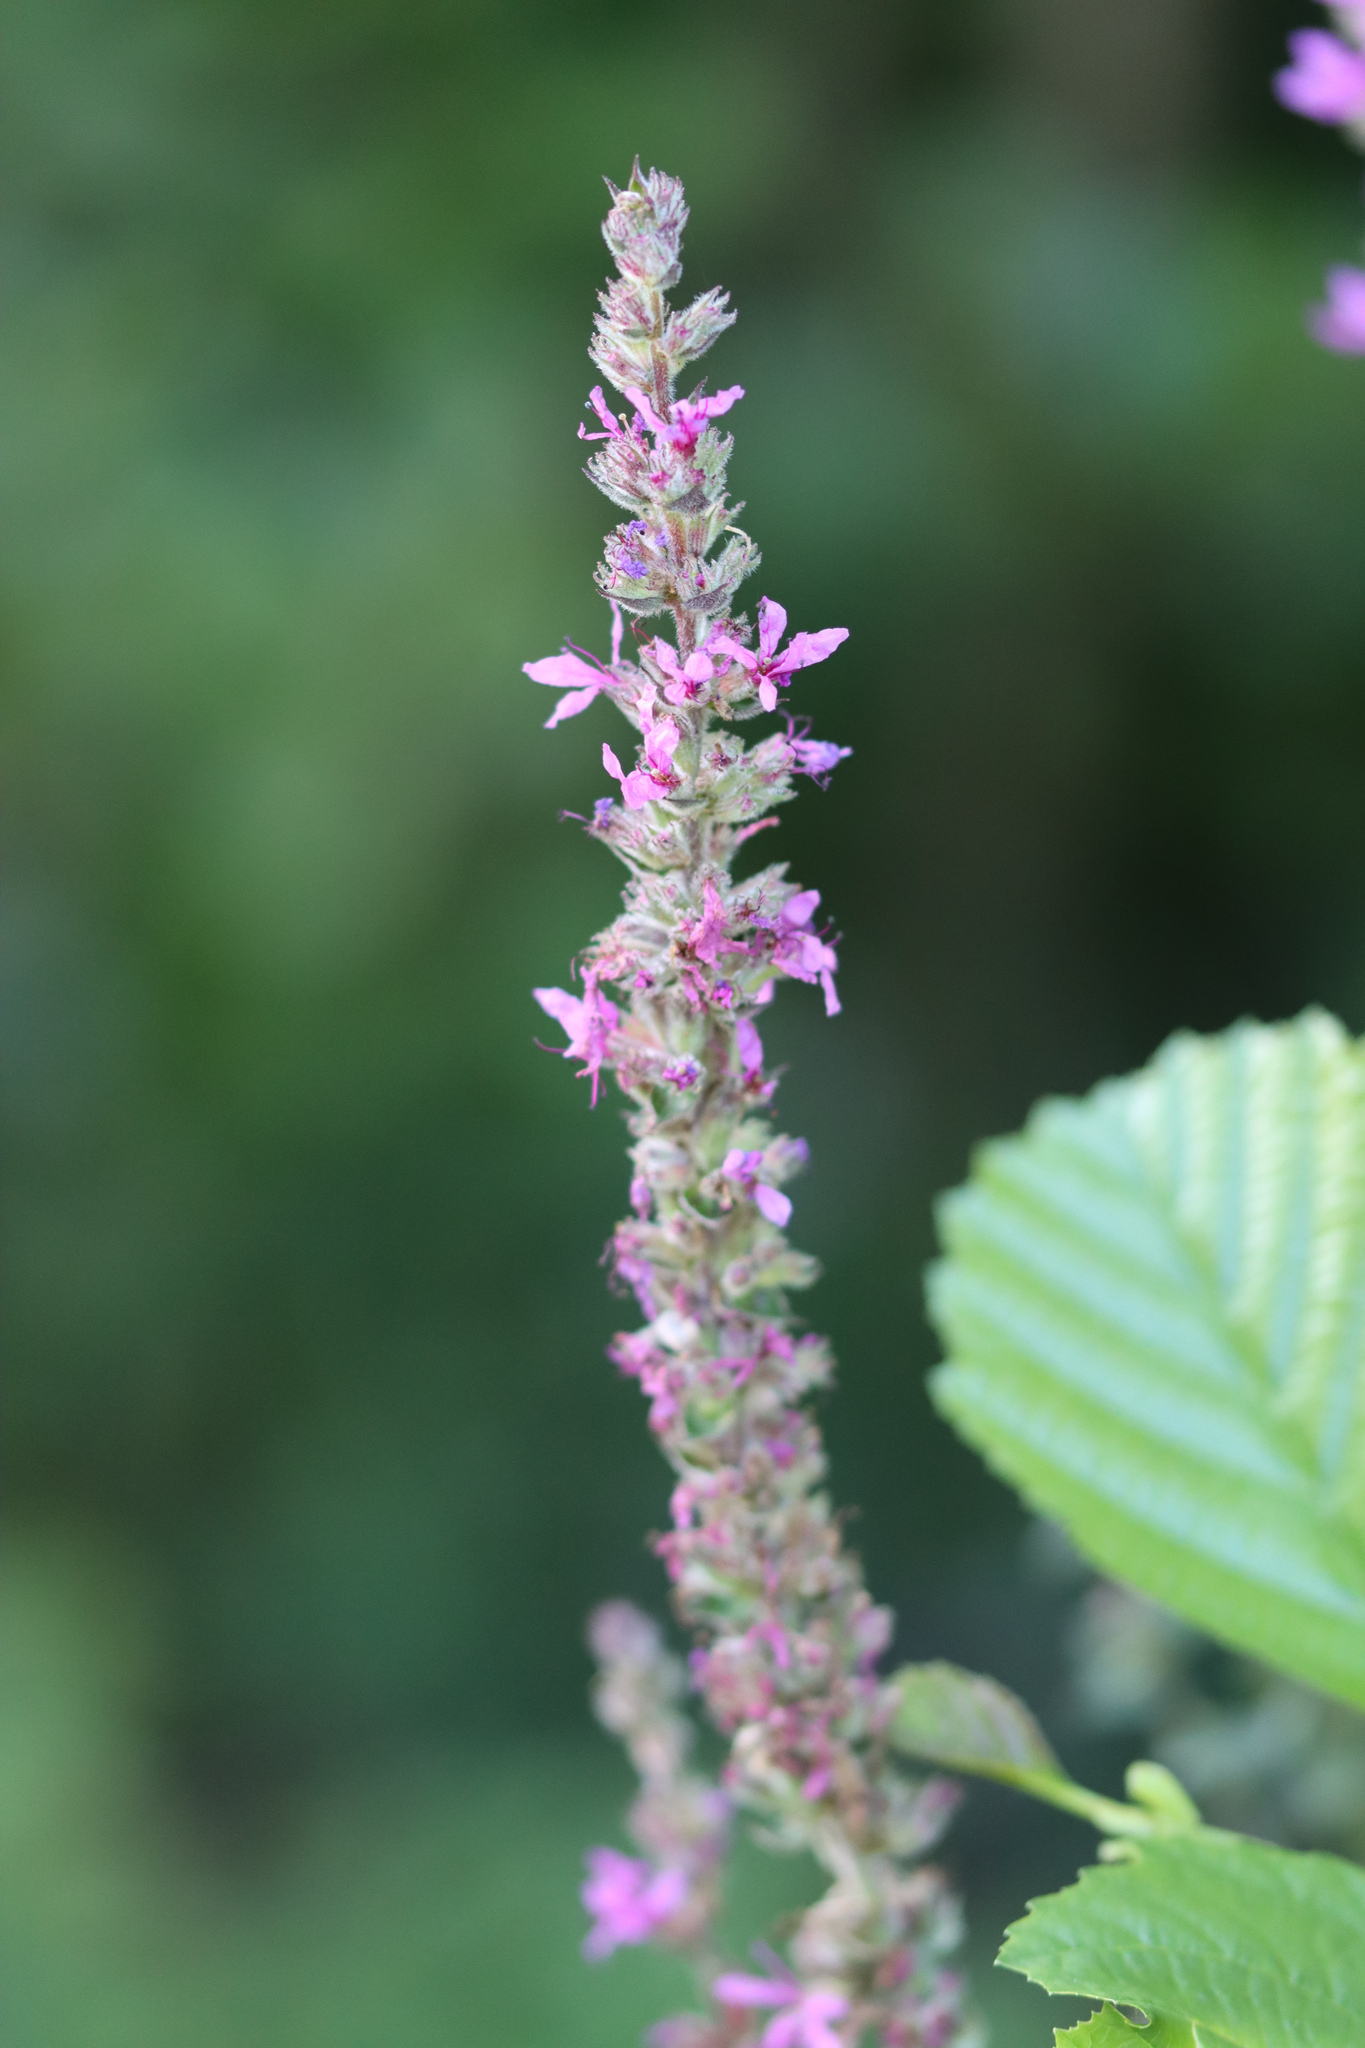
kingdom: Plantae
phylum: Tracheophyta
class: Magnoliopsida
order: Myrtales
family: Lythraceae
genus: Lythrum
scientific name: Lythrum salicaria
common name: Purple loosestrife
